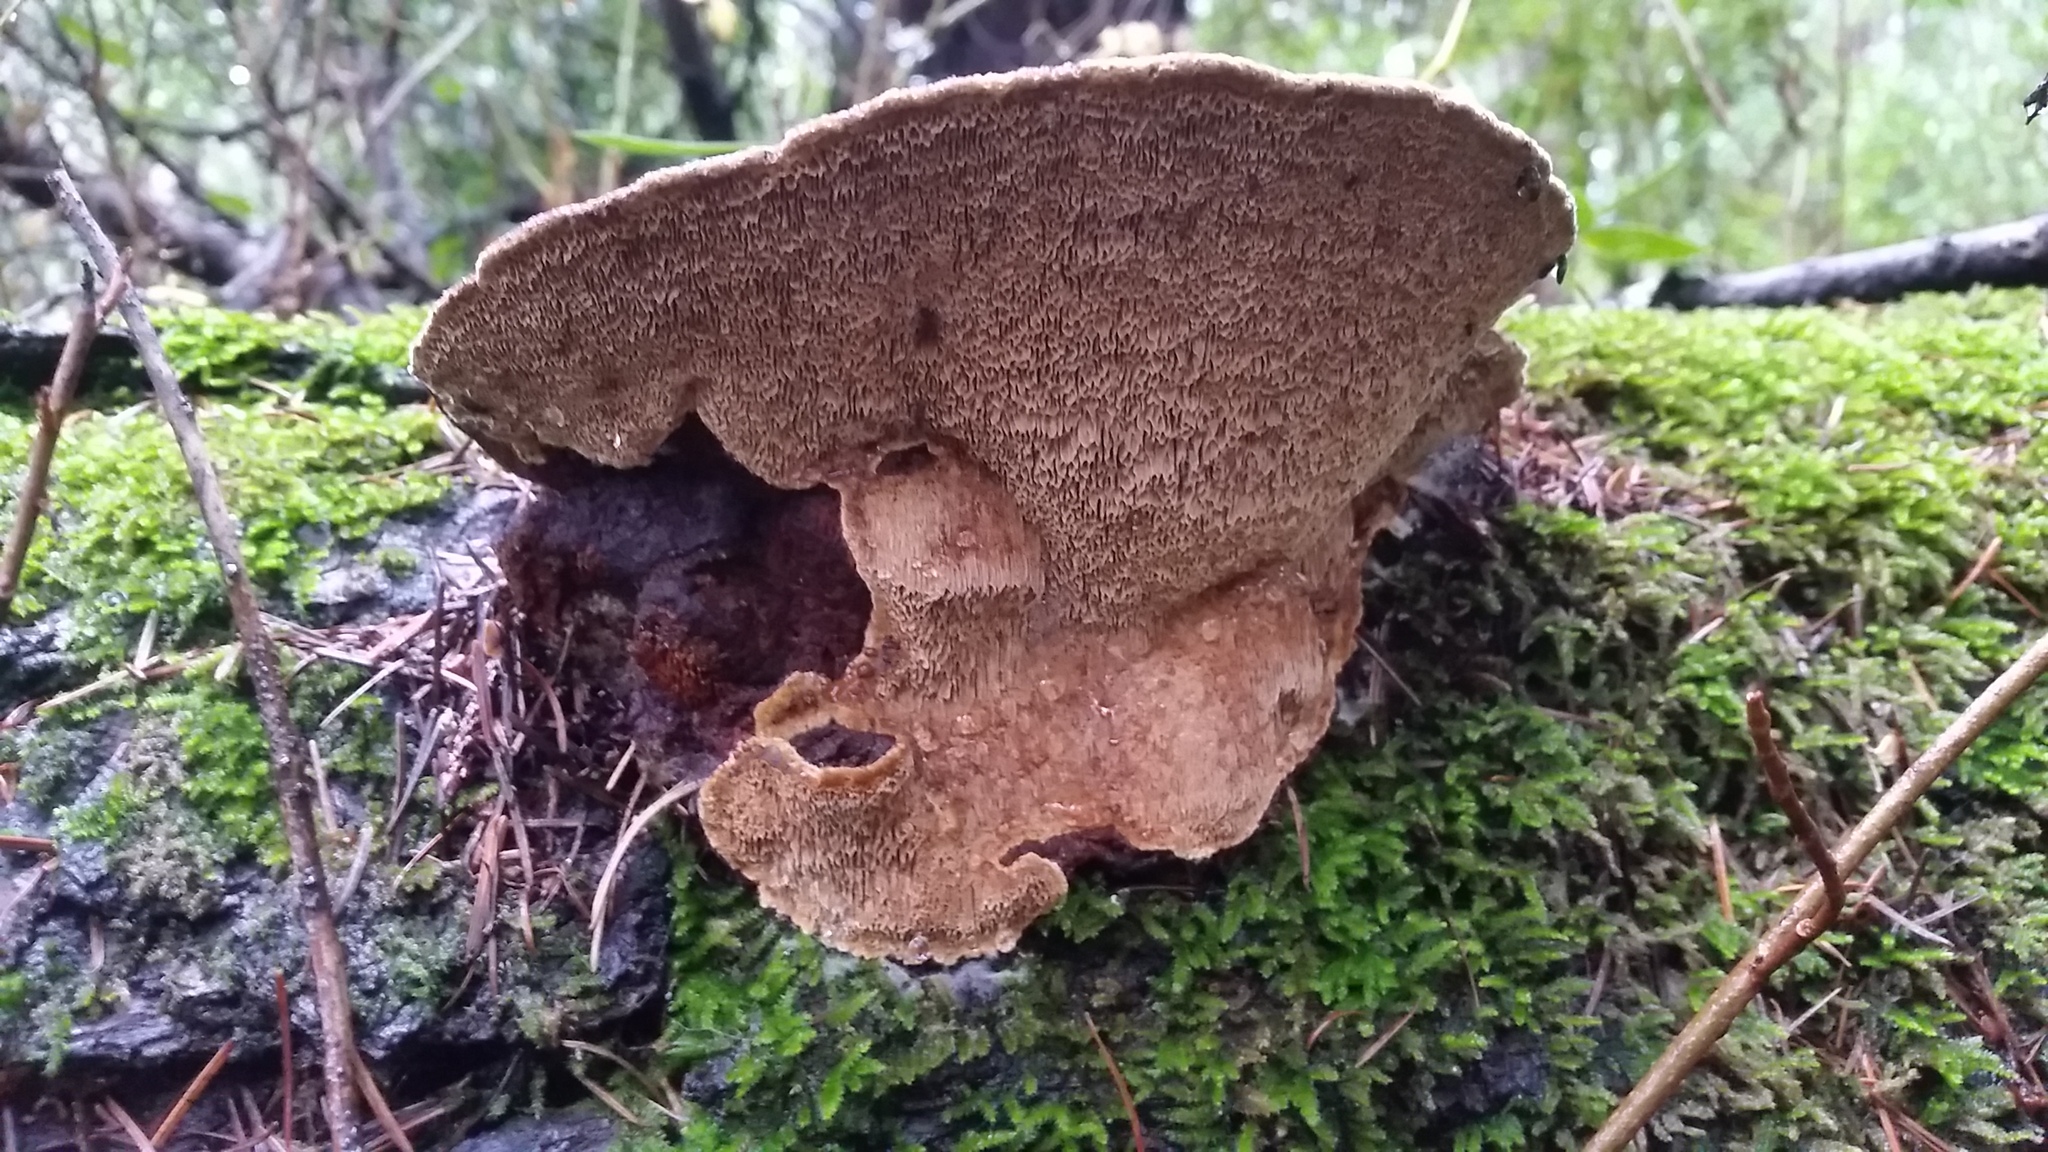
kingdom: Fungi
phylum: Basidiomycota
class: Agaricomycetes
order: Hymenochaetales
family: Hymenochaetaceae
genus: Porodaedalea
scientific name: Porodaedalea pini
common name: Pine bracket
